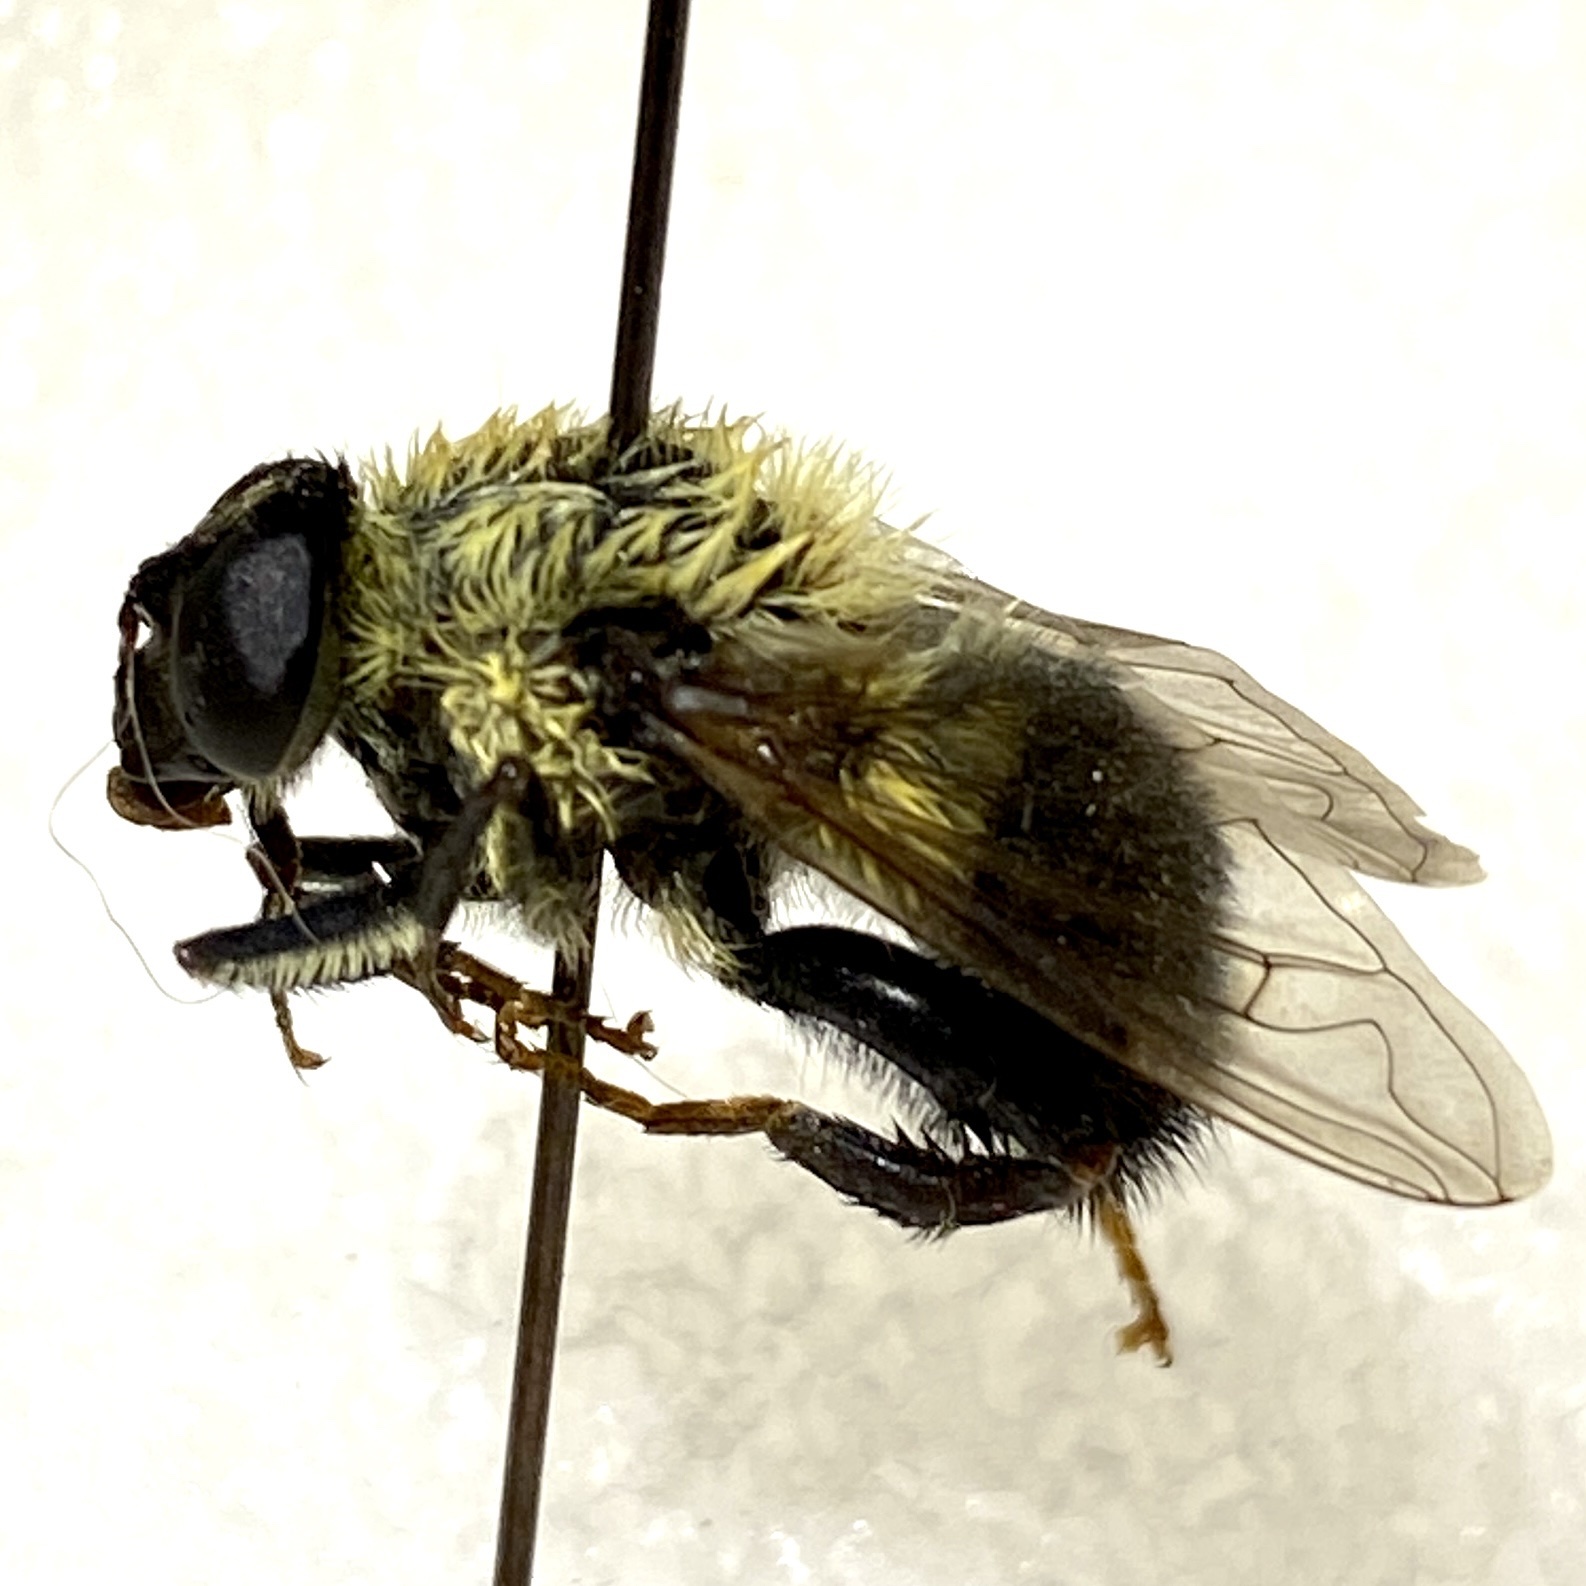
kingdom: Animalia
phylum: Arthropoda
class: Insecta
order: Diptera
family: Syrphidae
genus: Imatisma
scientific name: Imatisma bautias
